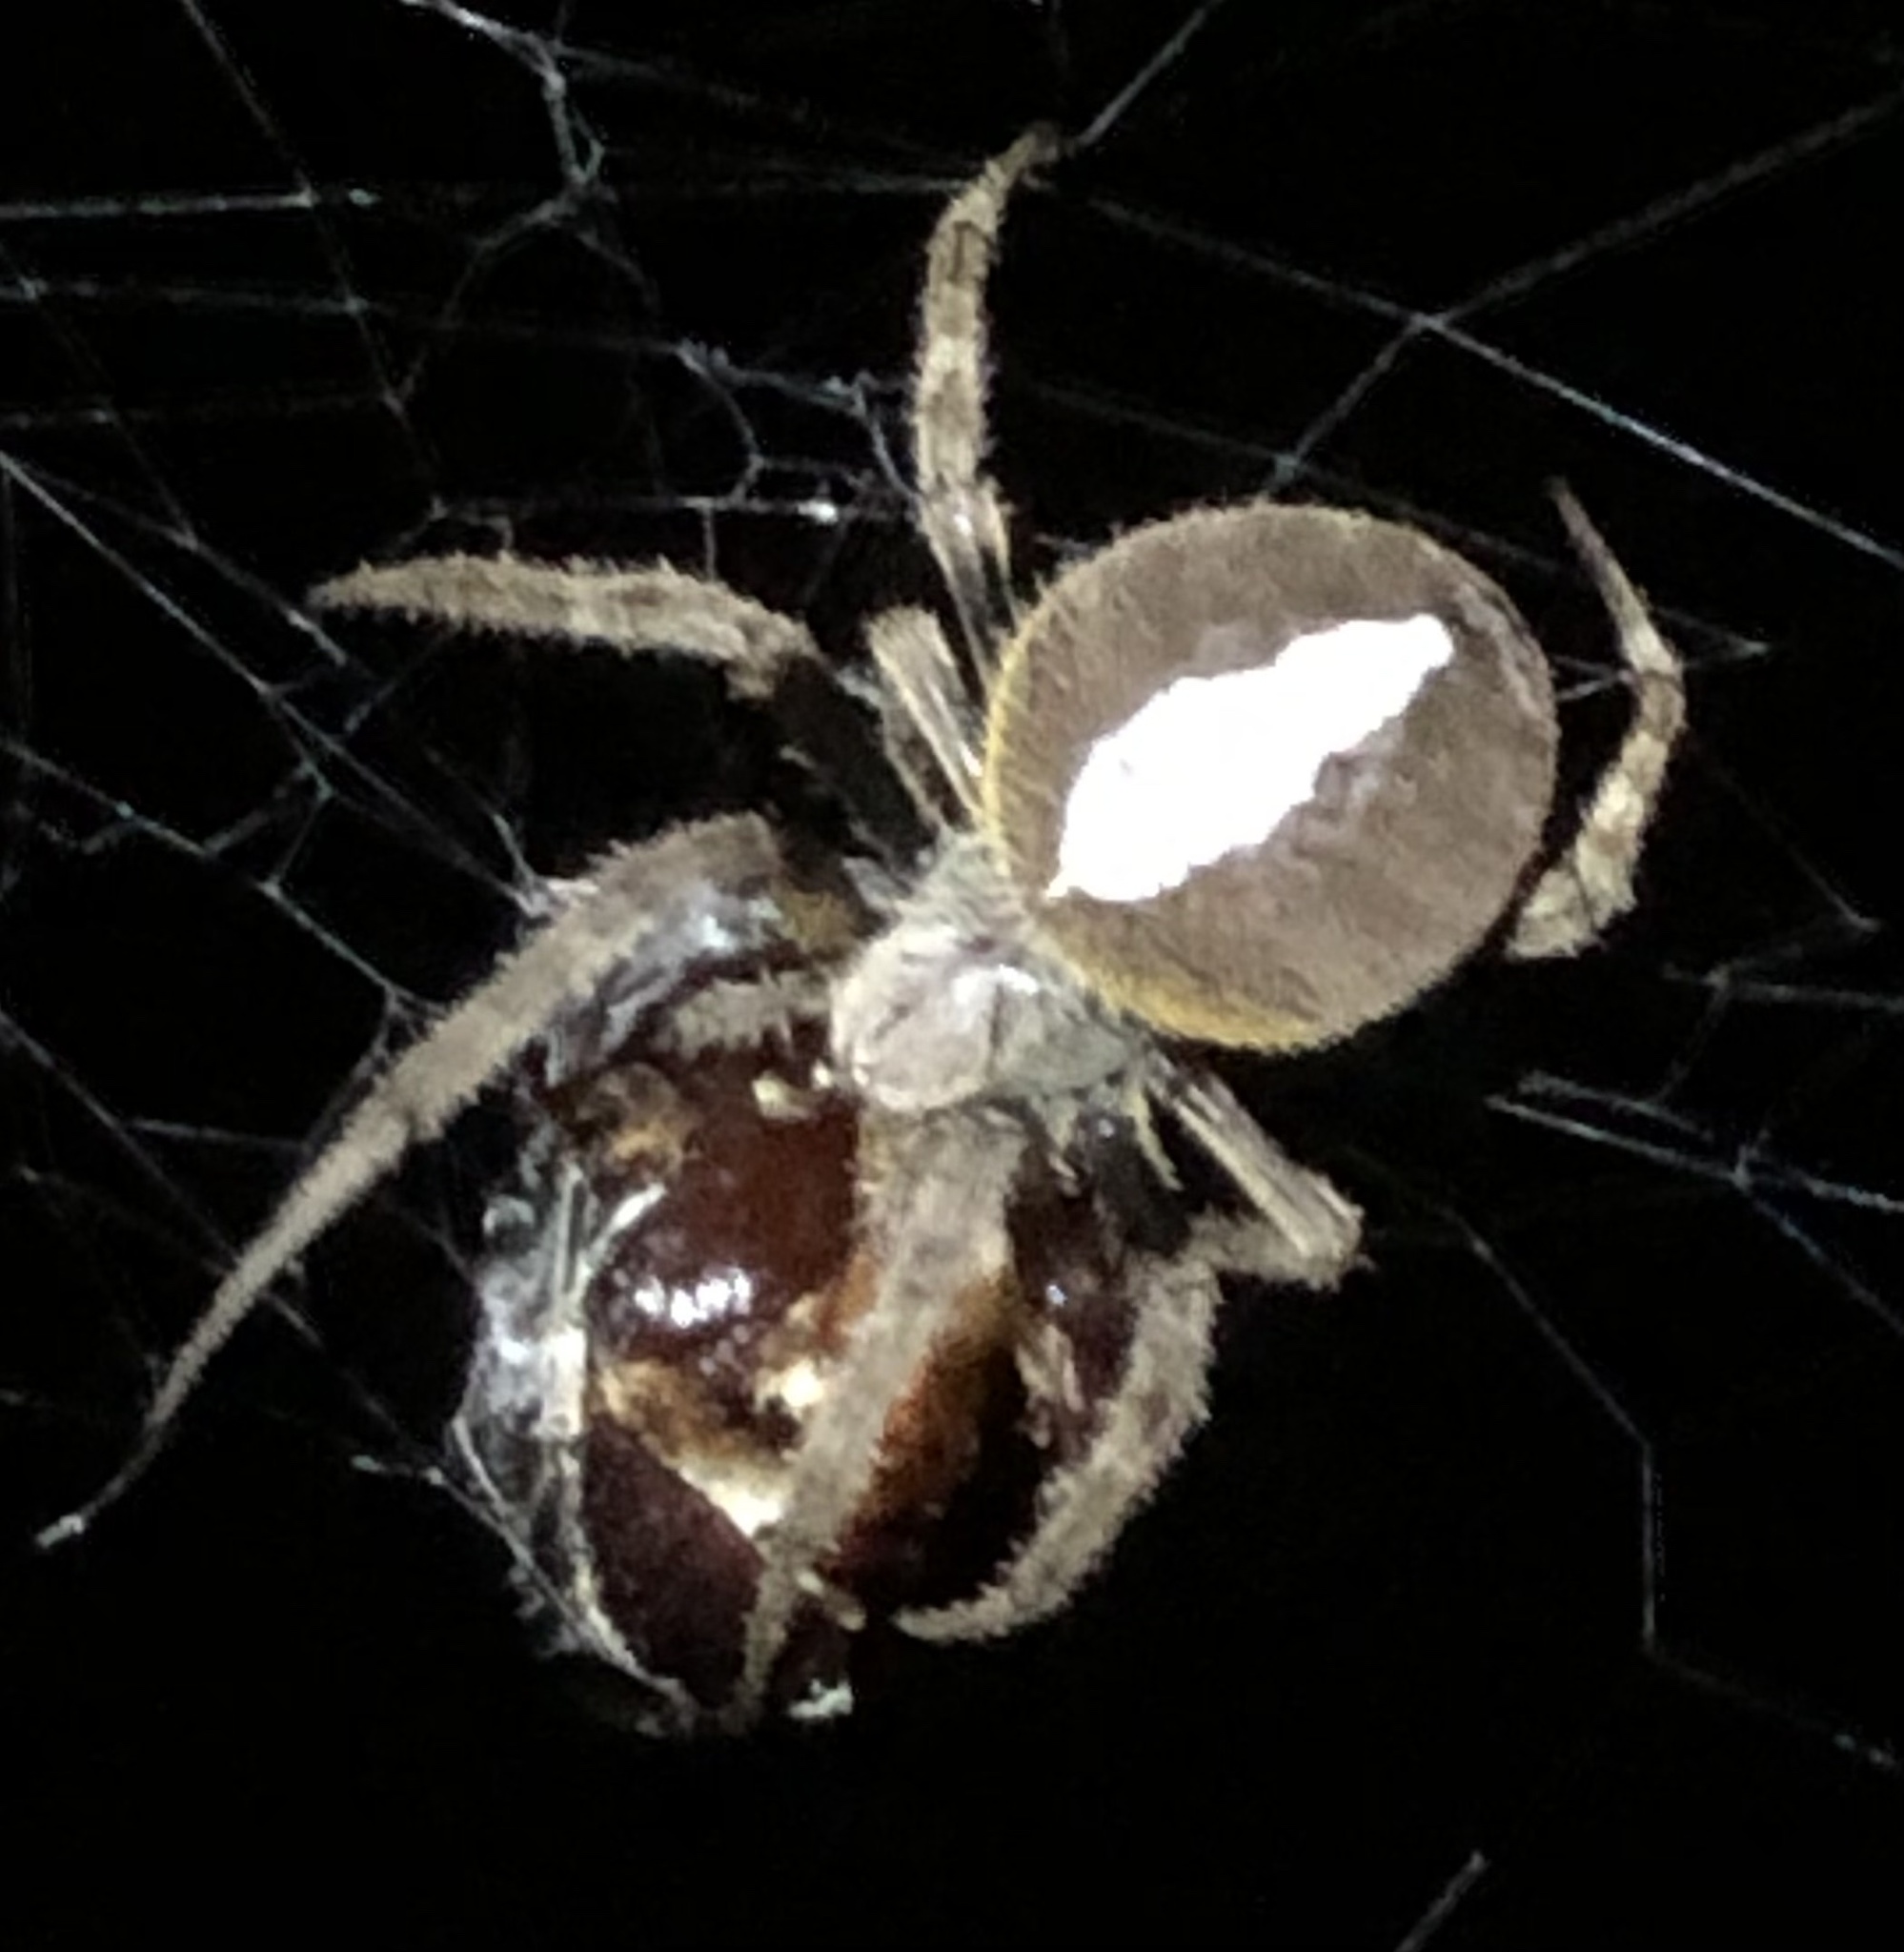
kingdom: Animalia
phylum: Arthropoda
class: Arachnida
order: Araneae
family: Araneidae
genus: Eriophora
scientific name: Eriophora ravilla
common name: Orb weavers
